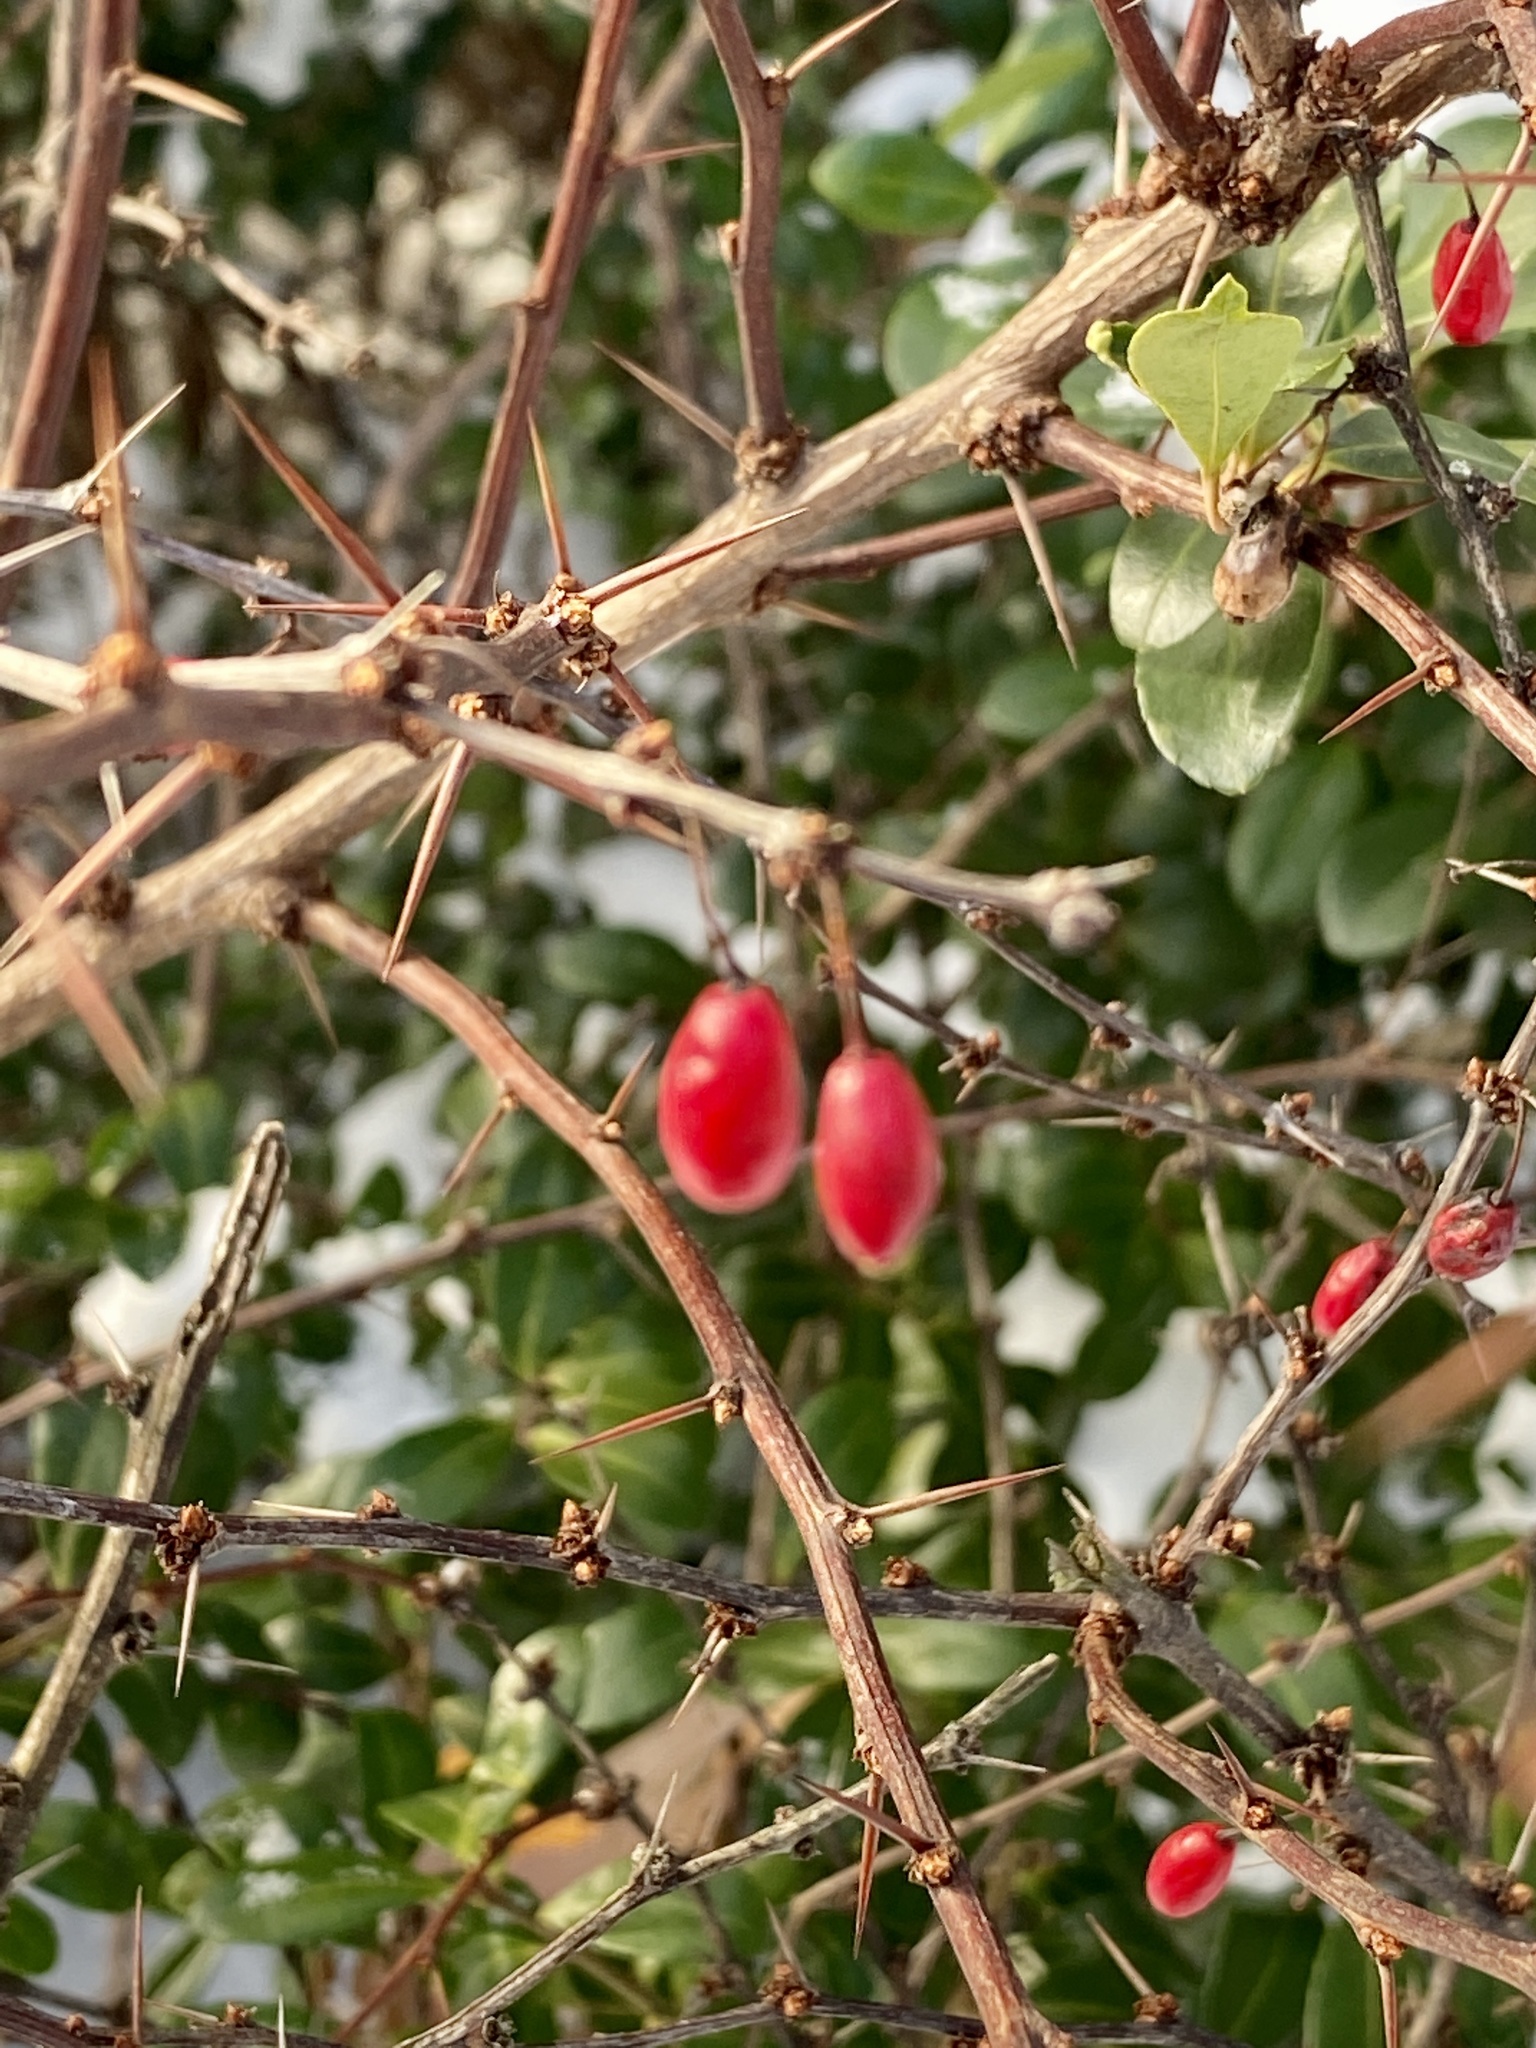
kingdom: Plantae
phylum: Tracheophyta
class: Magnoliopsida
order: Ranunculales
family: Berberidaceae
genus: Berberis
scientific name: Berberis thunbergii
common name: Japanese barberry
